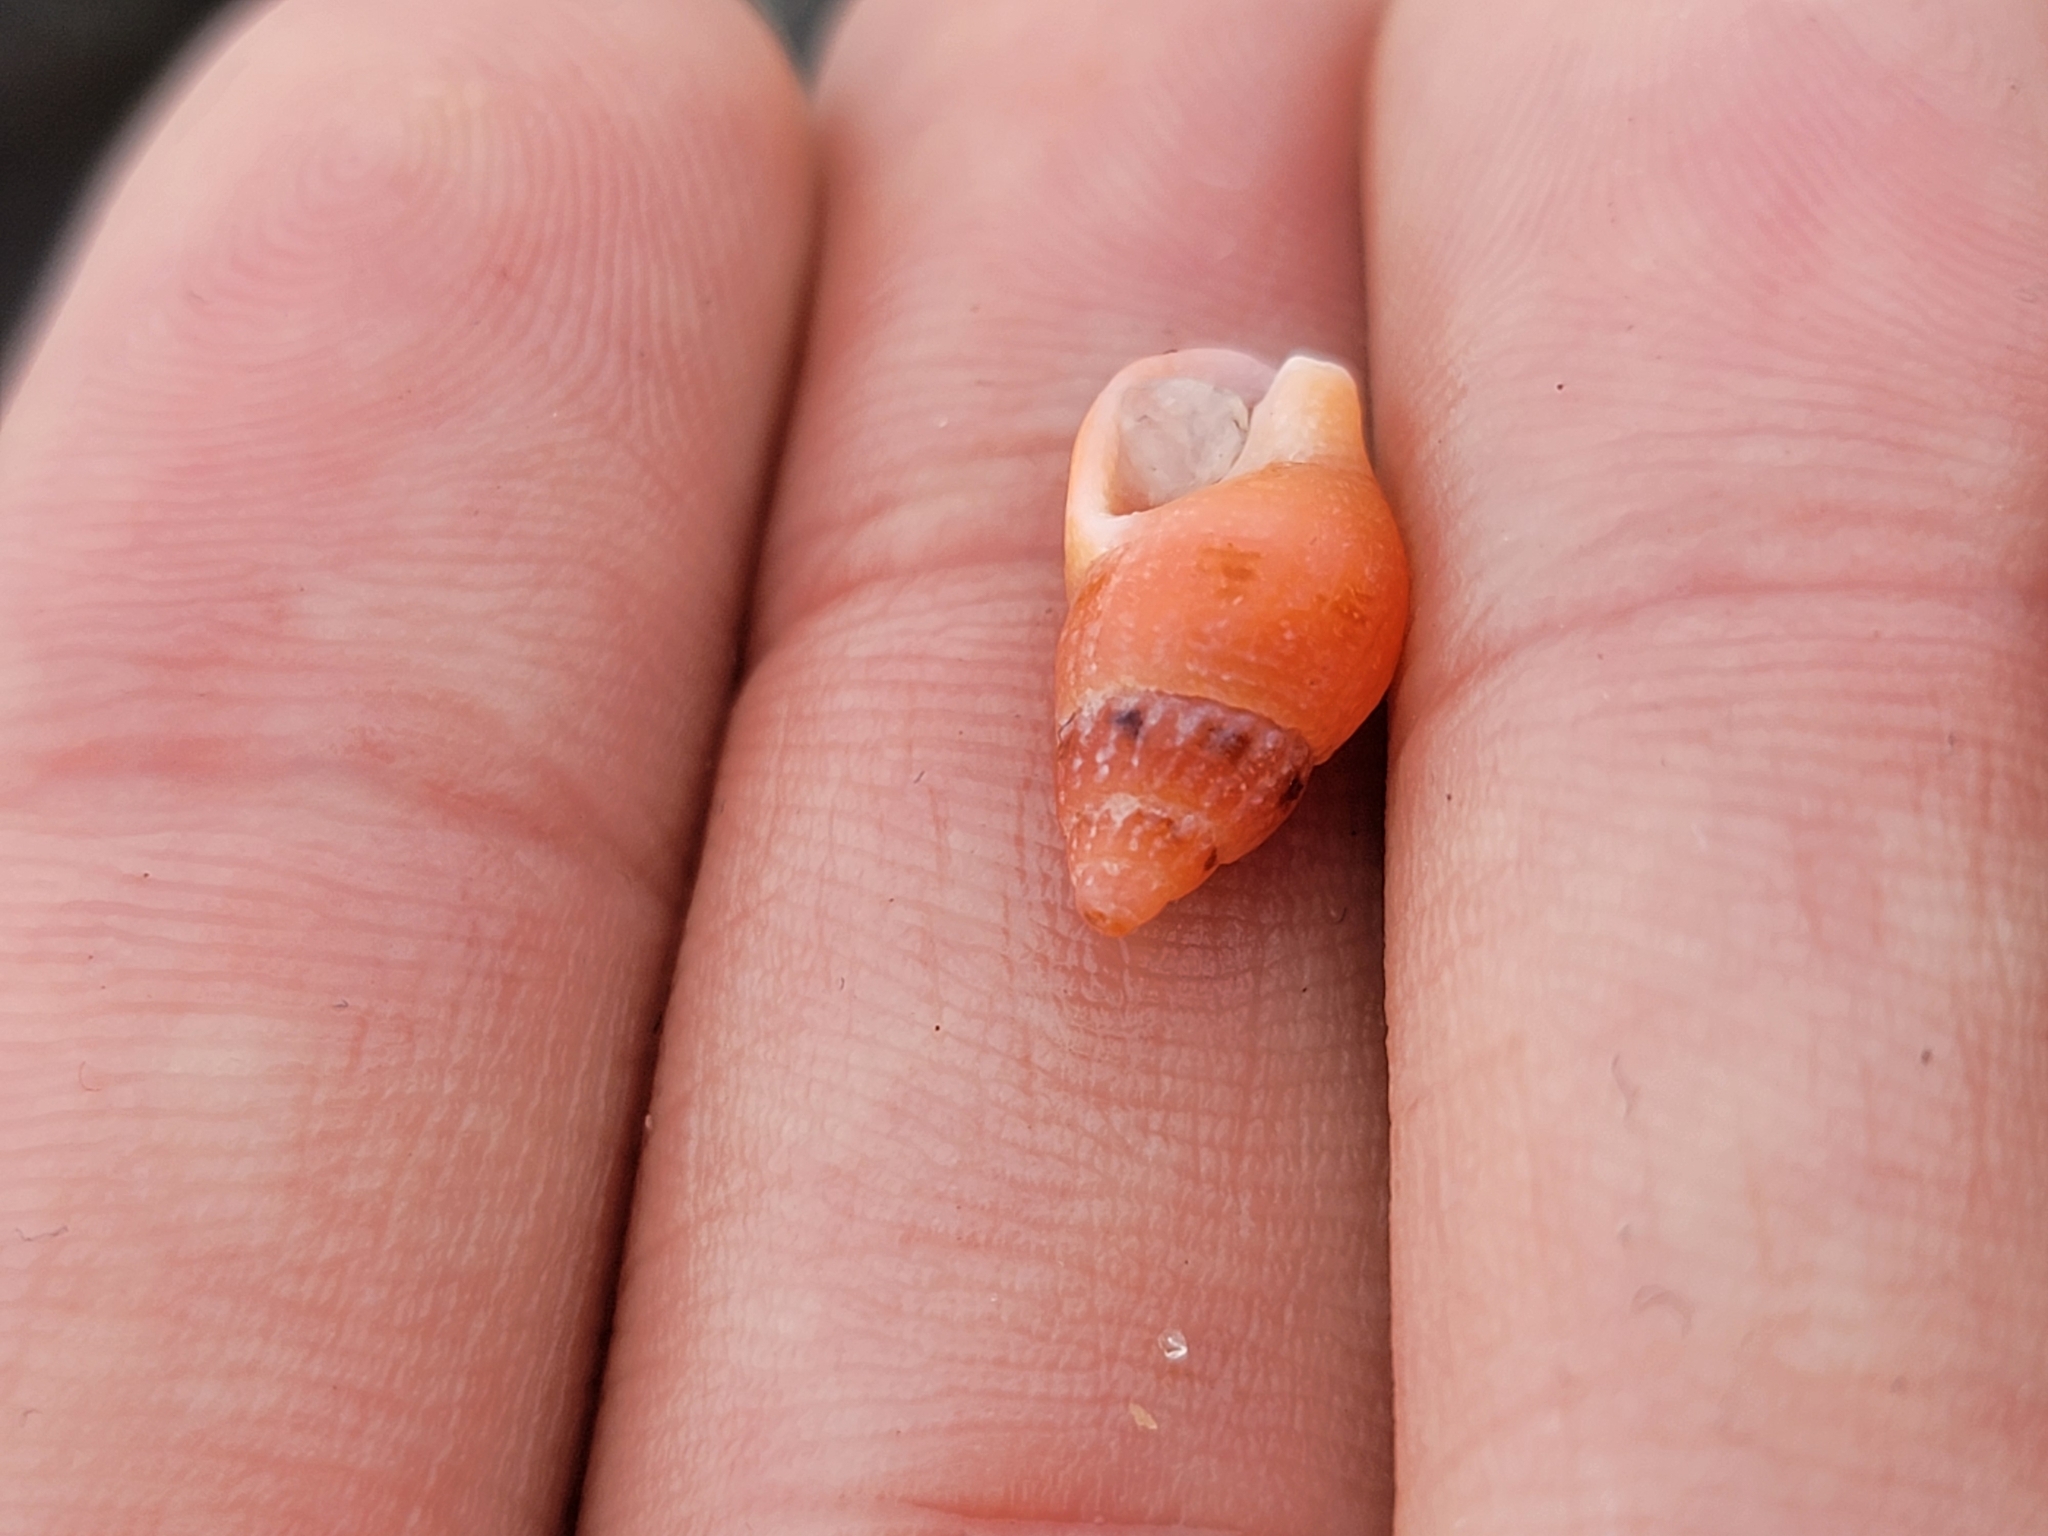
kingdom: Animalia
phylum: Mollusca
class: Gastropoda
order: Neogastropoda
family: Columbellidae
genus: Amphissa
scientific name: Amphissa versicolor
